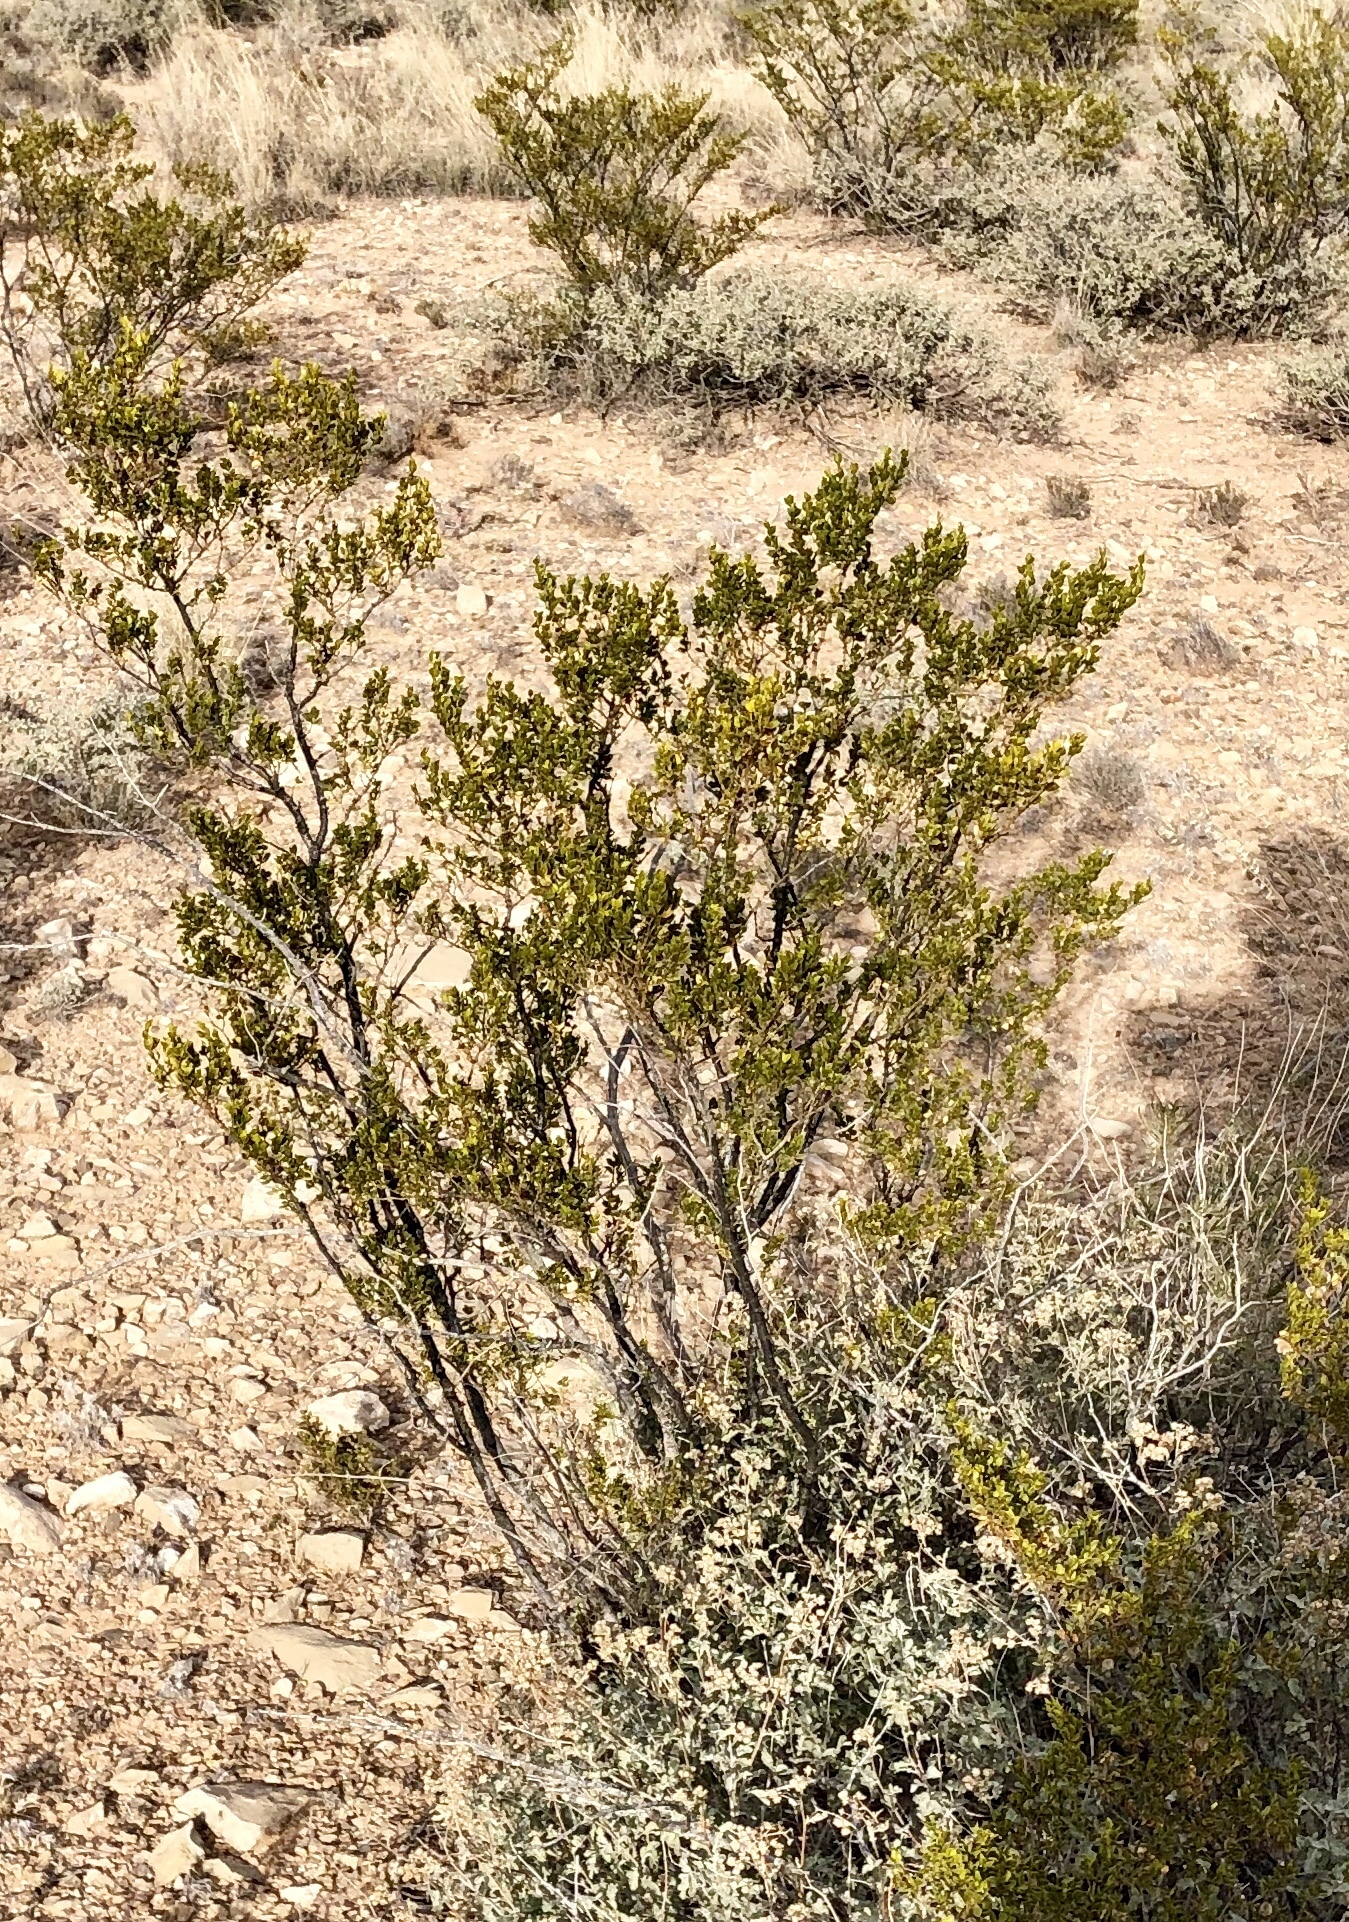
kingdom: Plantae
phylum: Tracheophyta
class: Magnoliopsida
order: Zygophyllales
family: Zygophyllaceae
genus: Larrea
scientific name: Larrea tridentata
